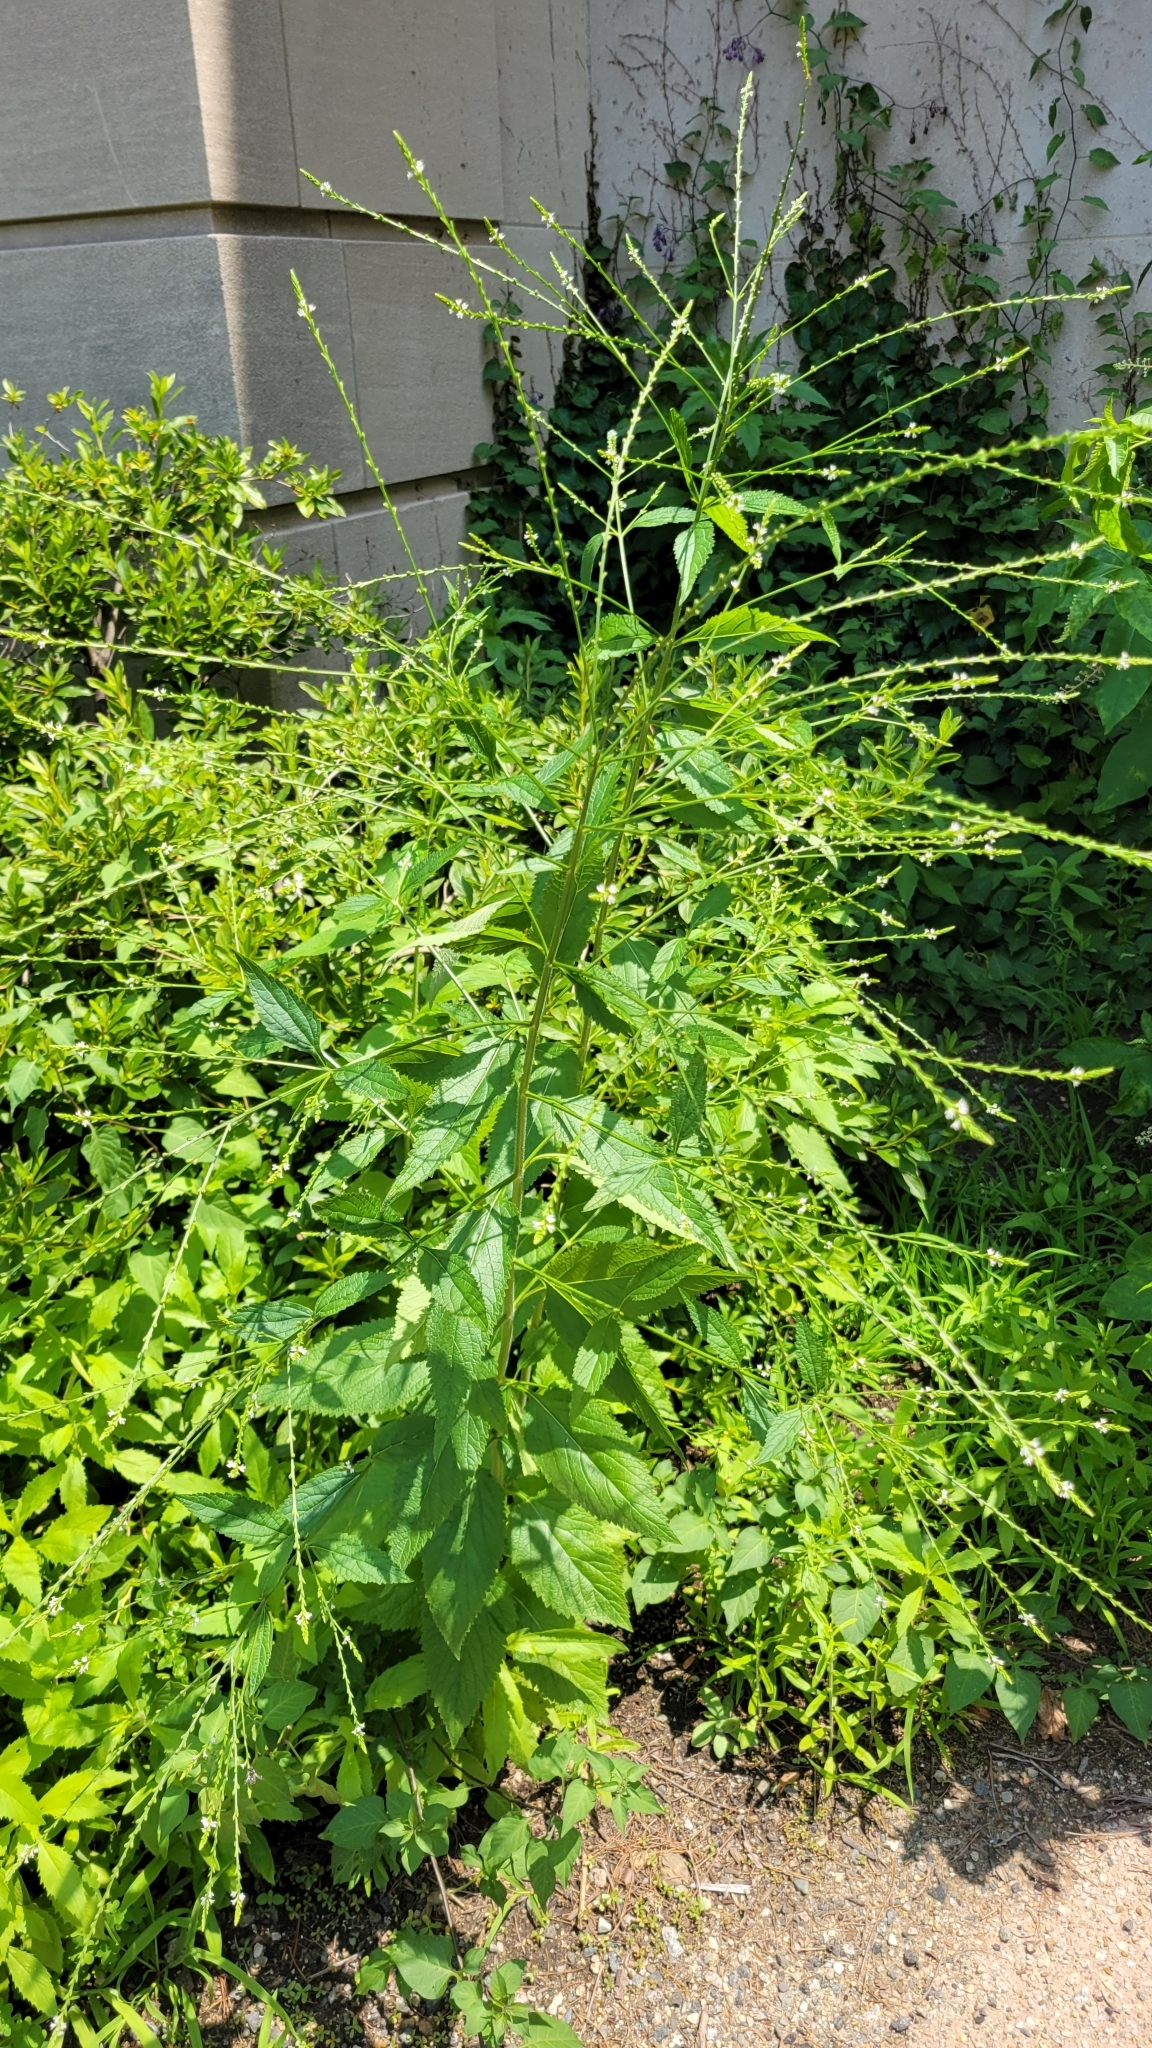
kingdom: Plantae
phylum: Tracheophyta
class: Magnoliopsida
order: Lamiales
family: Verbenaceae
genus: Verbena
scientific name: Verbena urticifolia
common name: Nettle-leaved vervain
